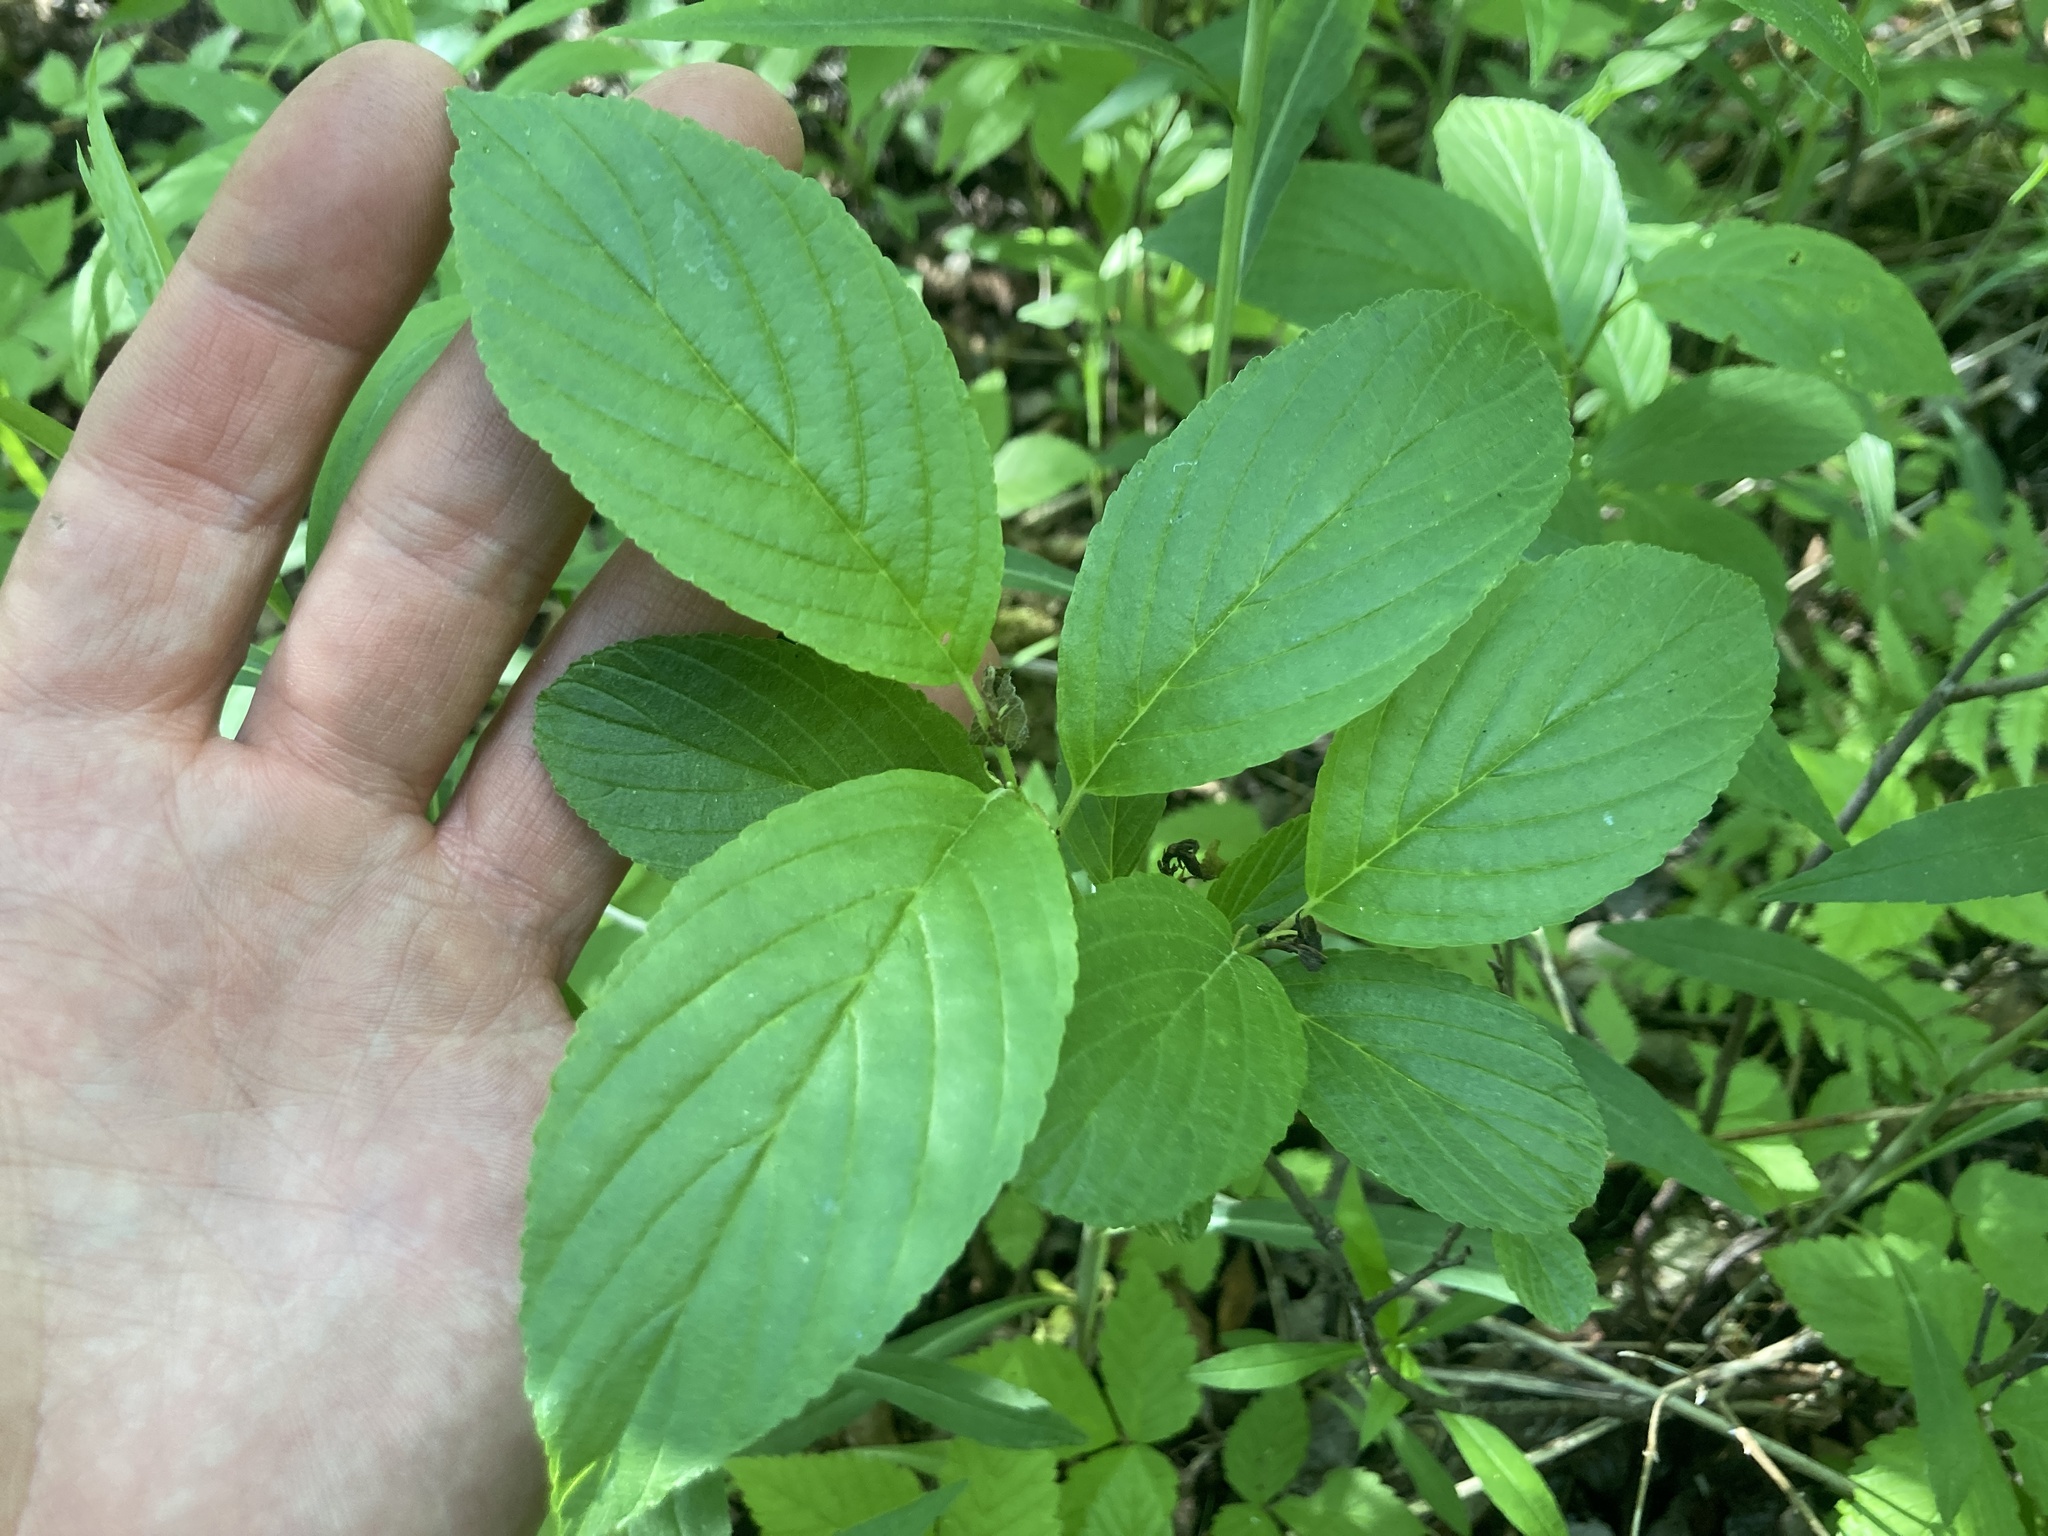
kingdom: Plantae
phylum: Tracheophyta
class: Magnoliopsida
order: Rosales
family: Rhamnaceae
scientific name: Rhamnaceae
